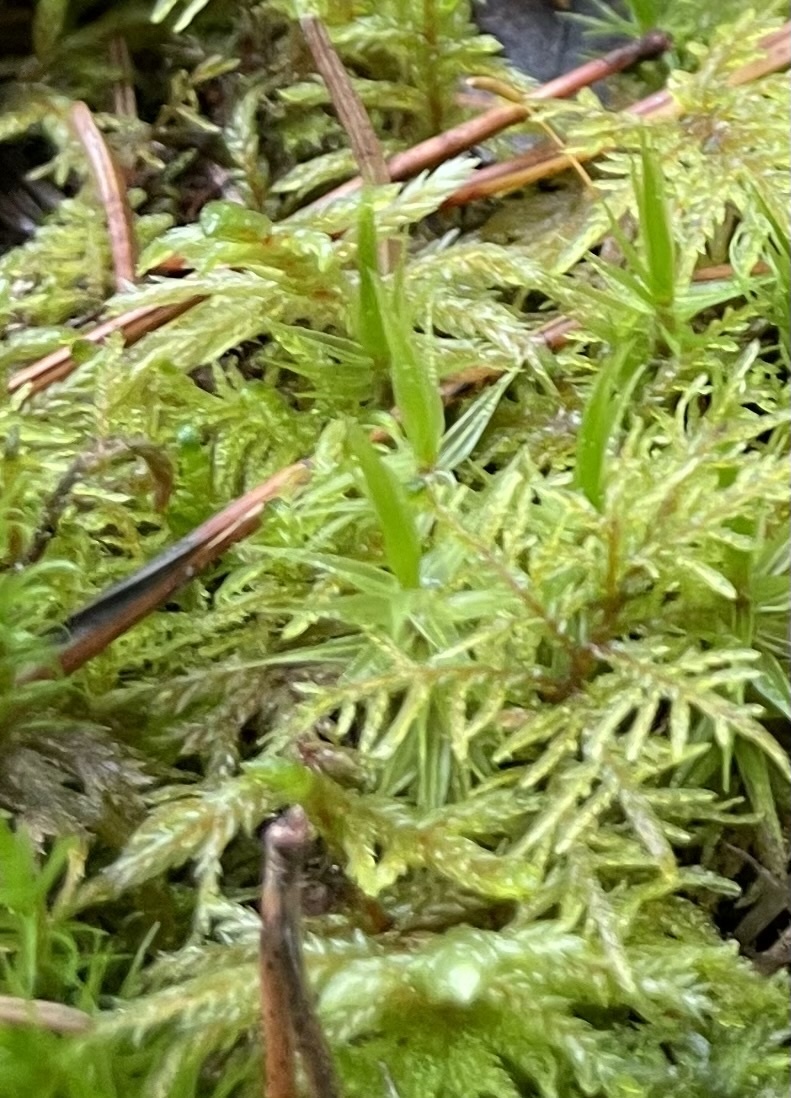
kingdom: Plantae
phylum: Bryophyta
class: Bryopsida
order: Hypnales
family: Hylocomiaceae
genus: Hylocomium
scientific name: Hylocomium splendens
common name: Stairstep moss
